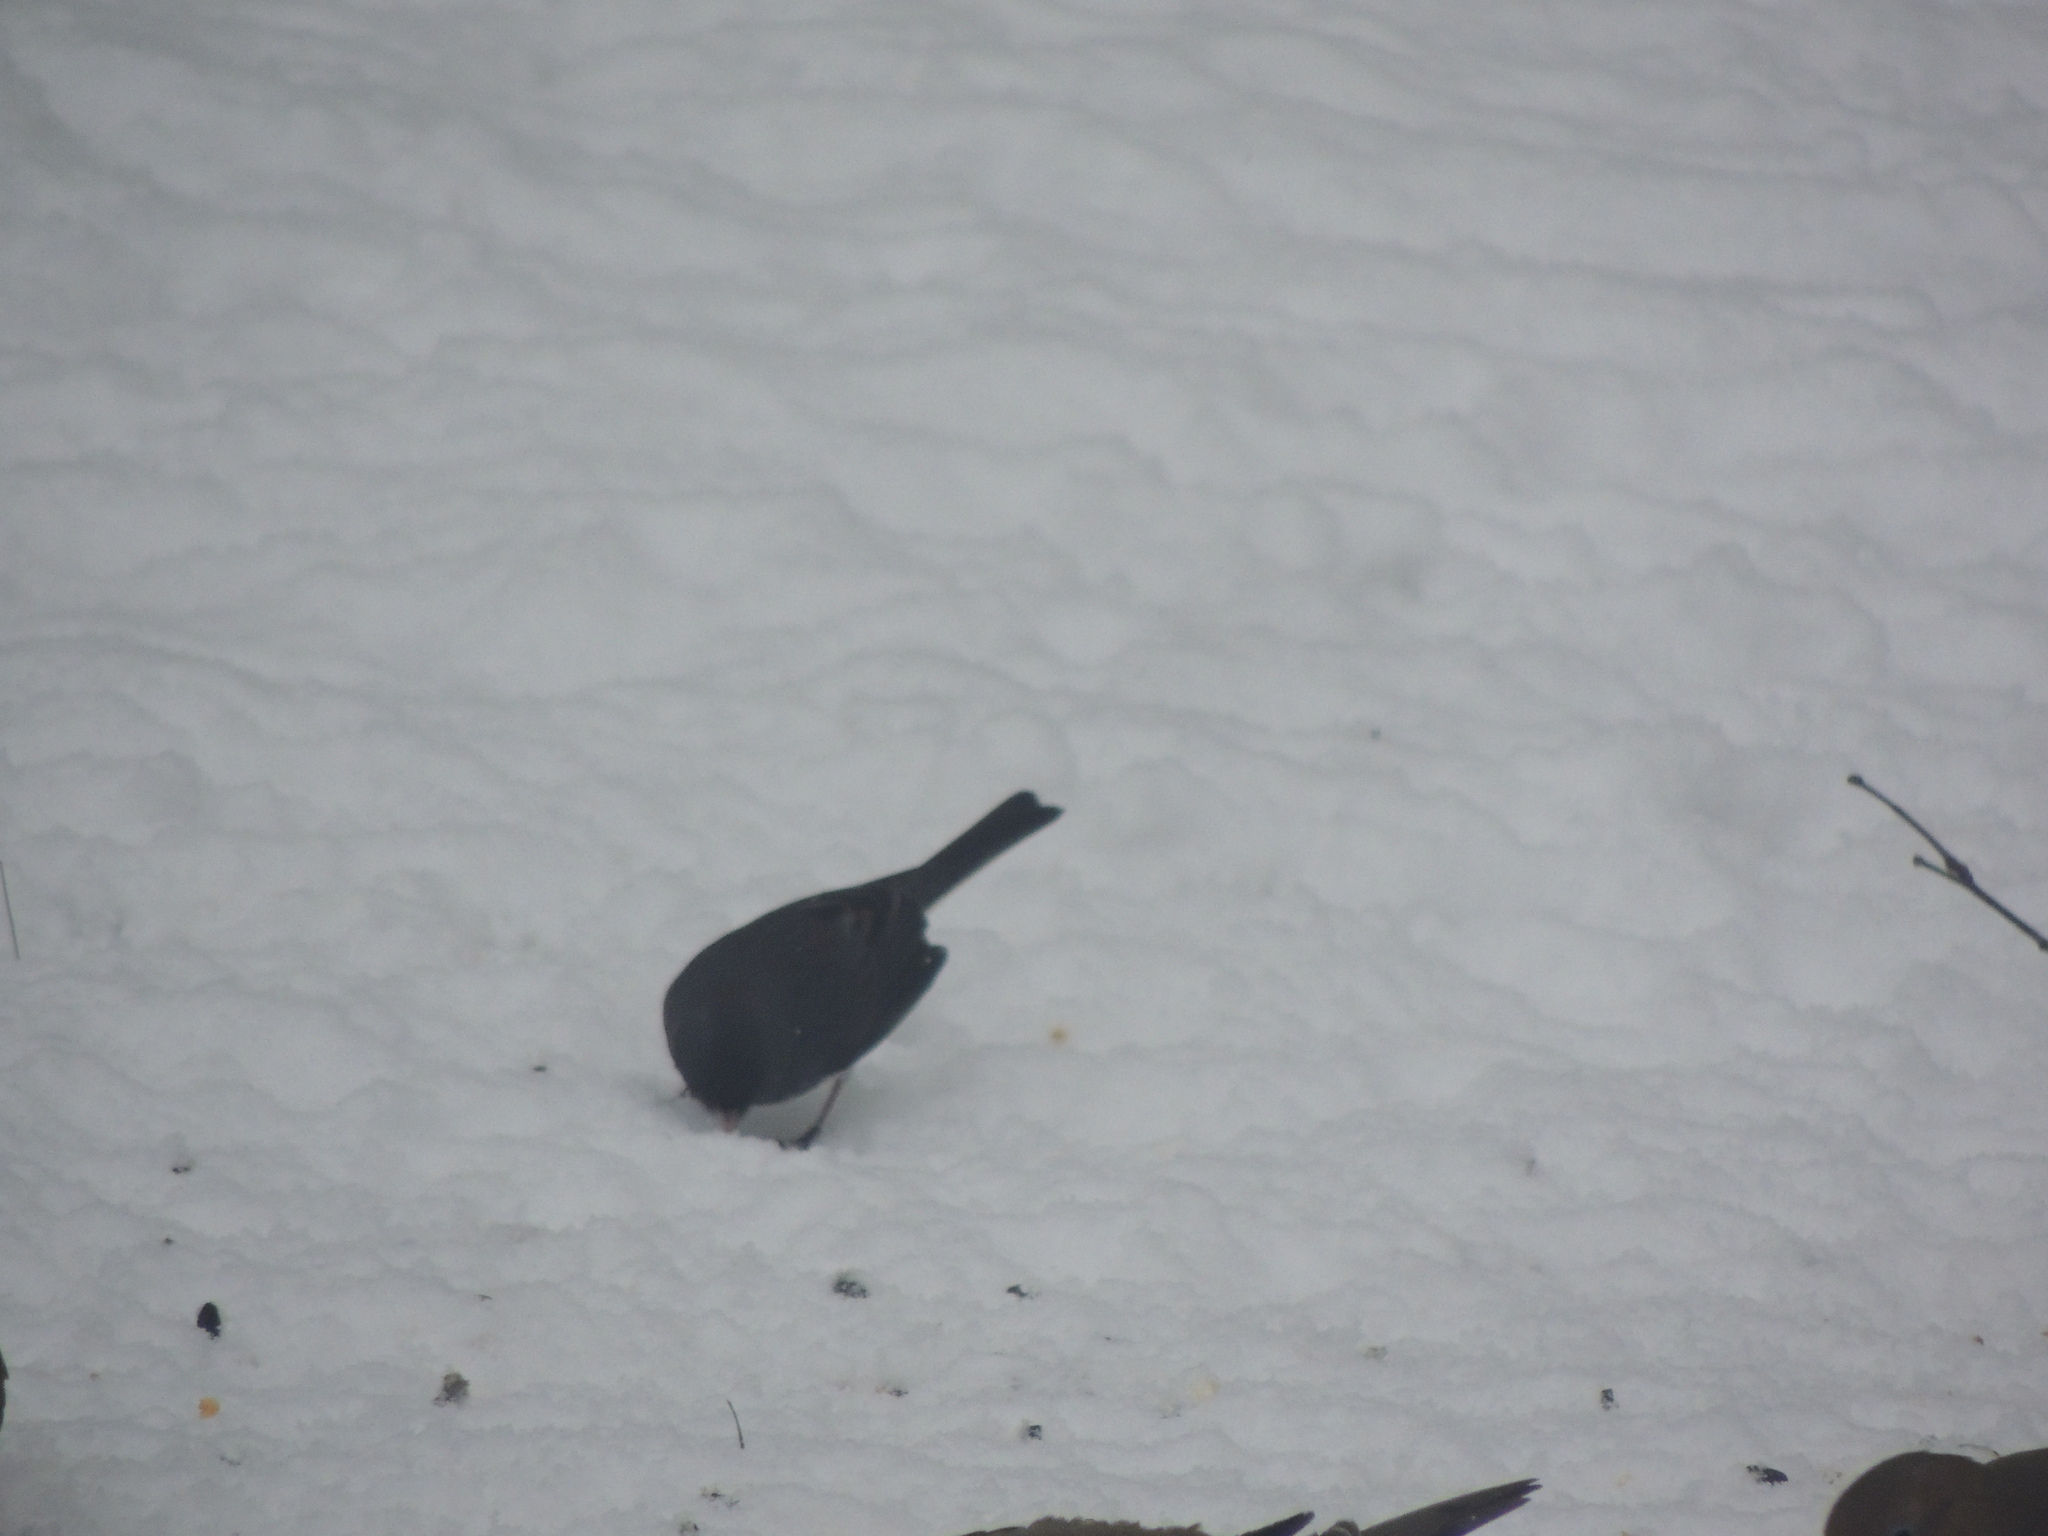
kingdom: Animalia
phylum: Chordata
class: Aves
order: Passeriformes
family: Passerellidae
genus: Junco
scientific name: Junco hyemalis
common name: Dark-eyed junco
